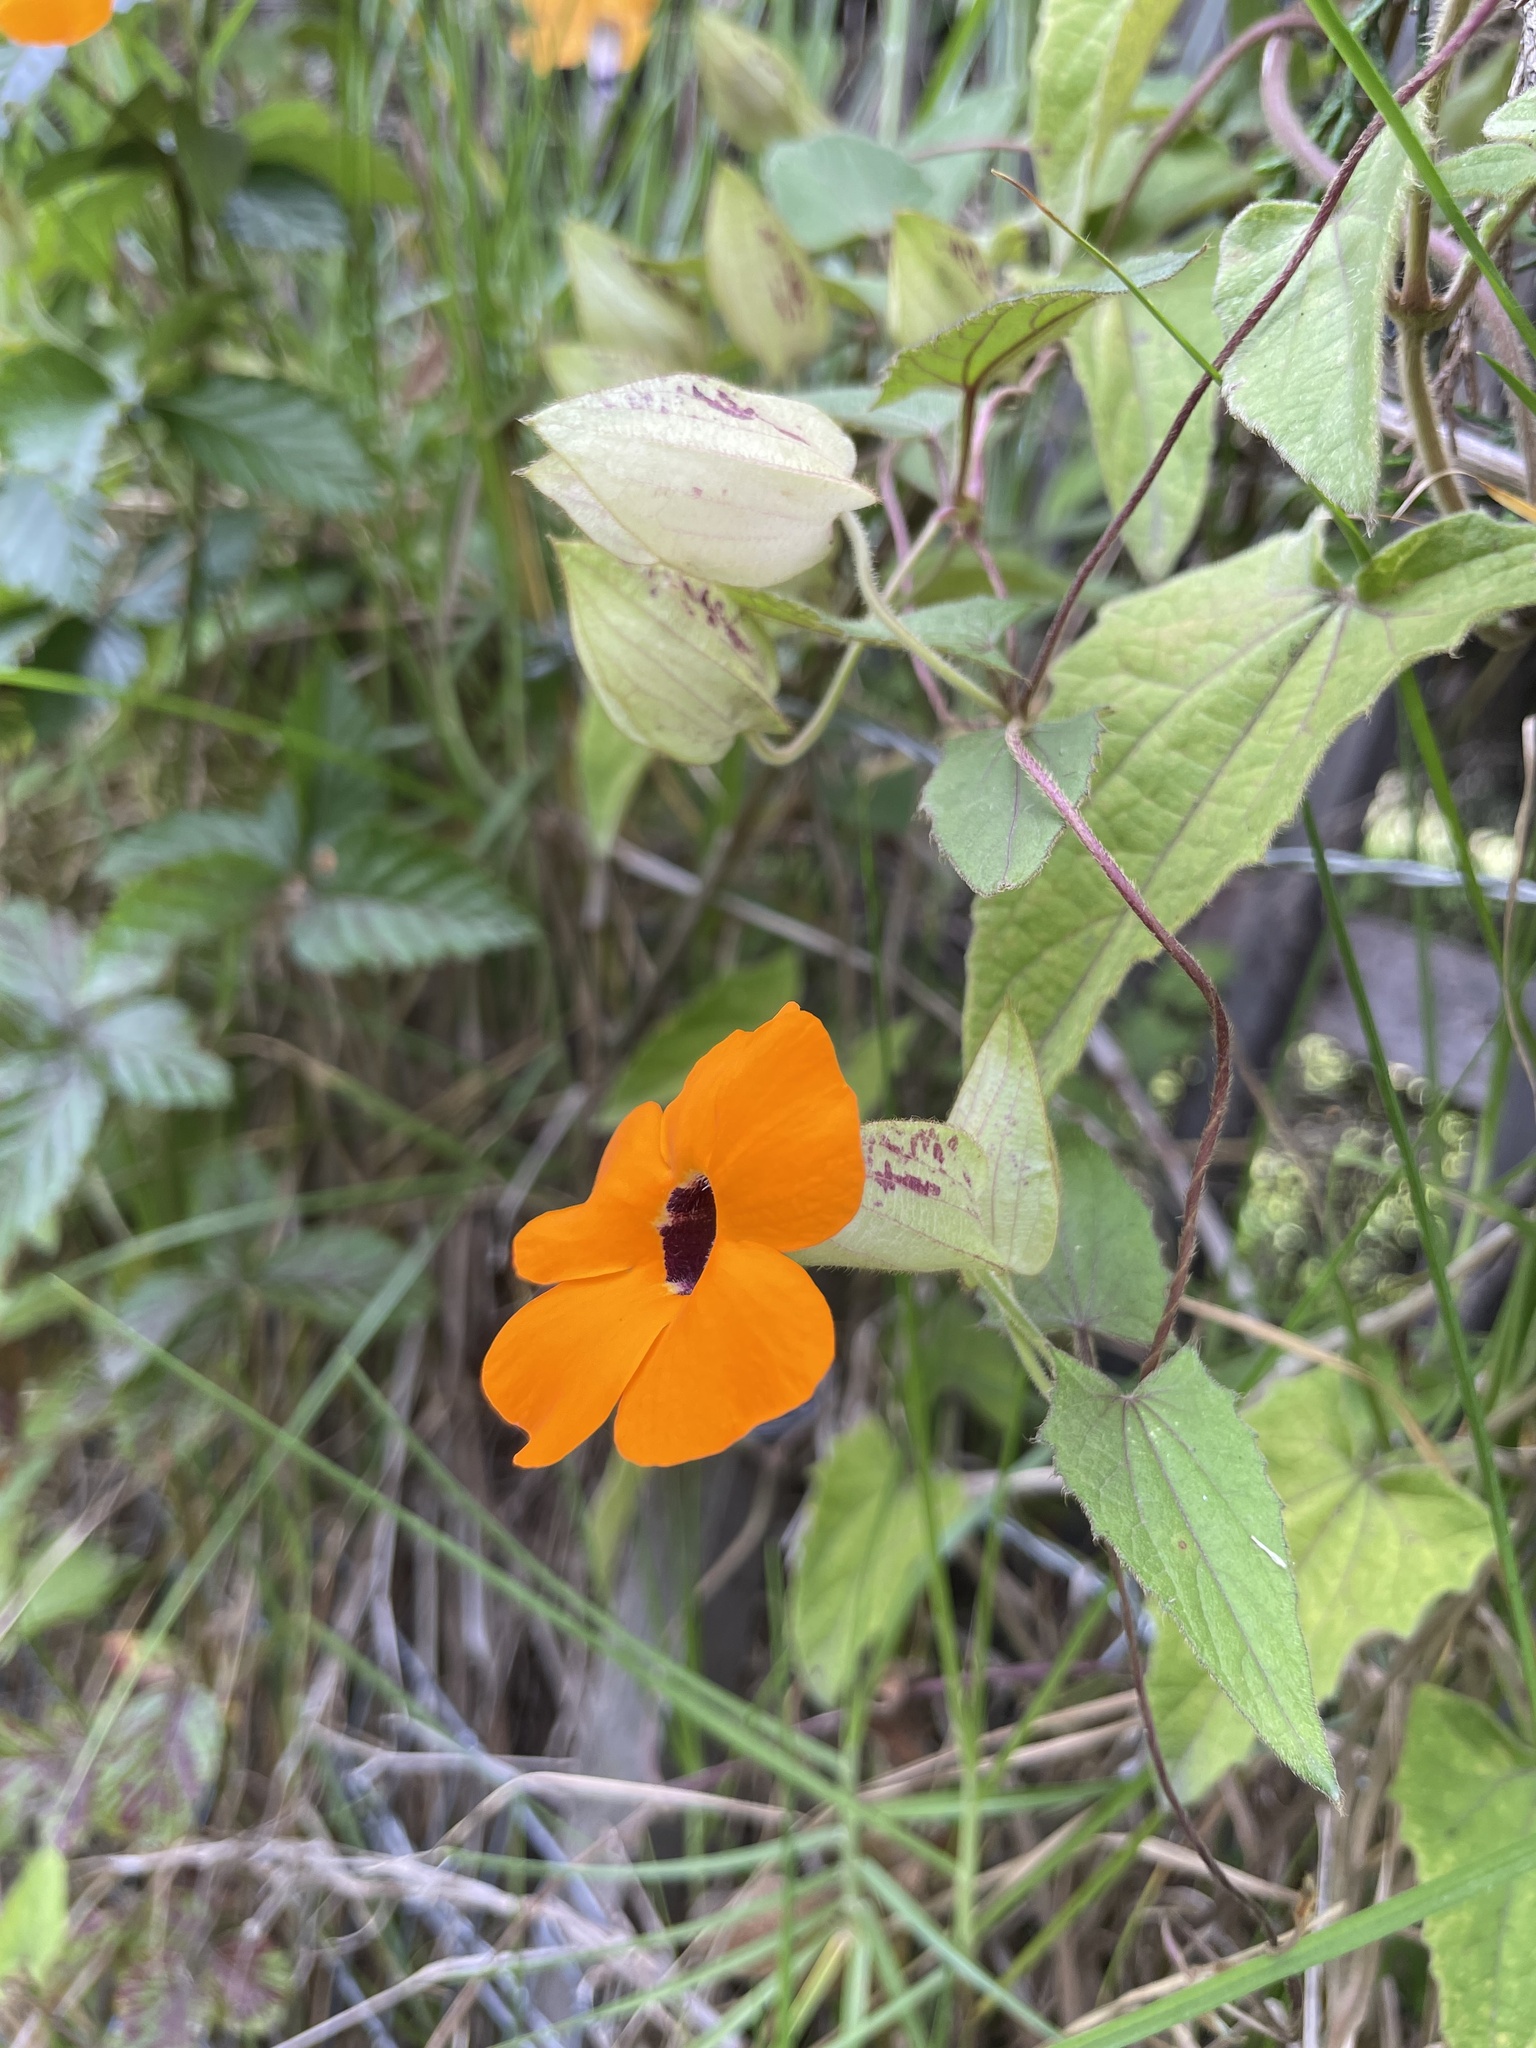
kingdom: Plantae
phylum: Tracheophyta
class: Magnoliopsida
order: Lamiales
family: Acanthaceae
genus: Thunbergia
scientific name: Thunbergia alata
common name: Blackeyed susan vine
